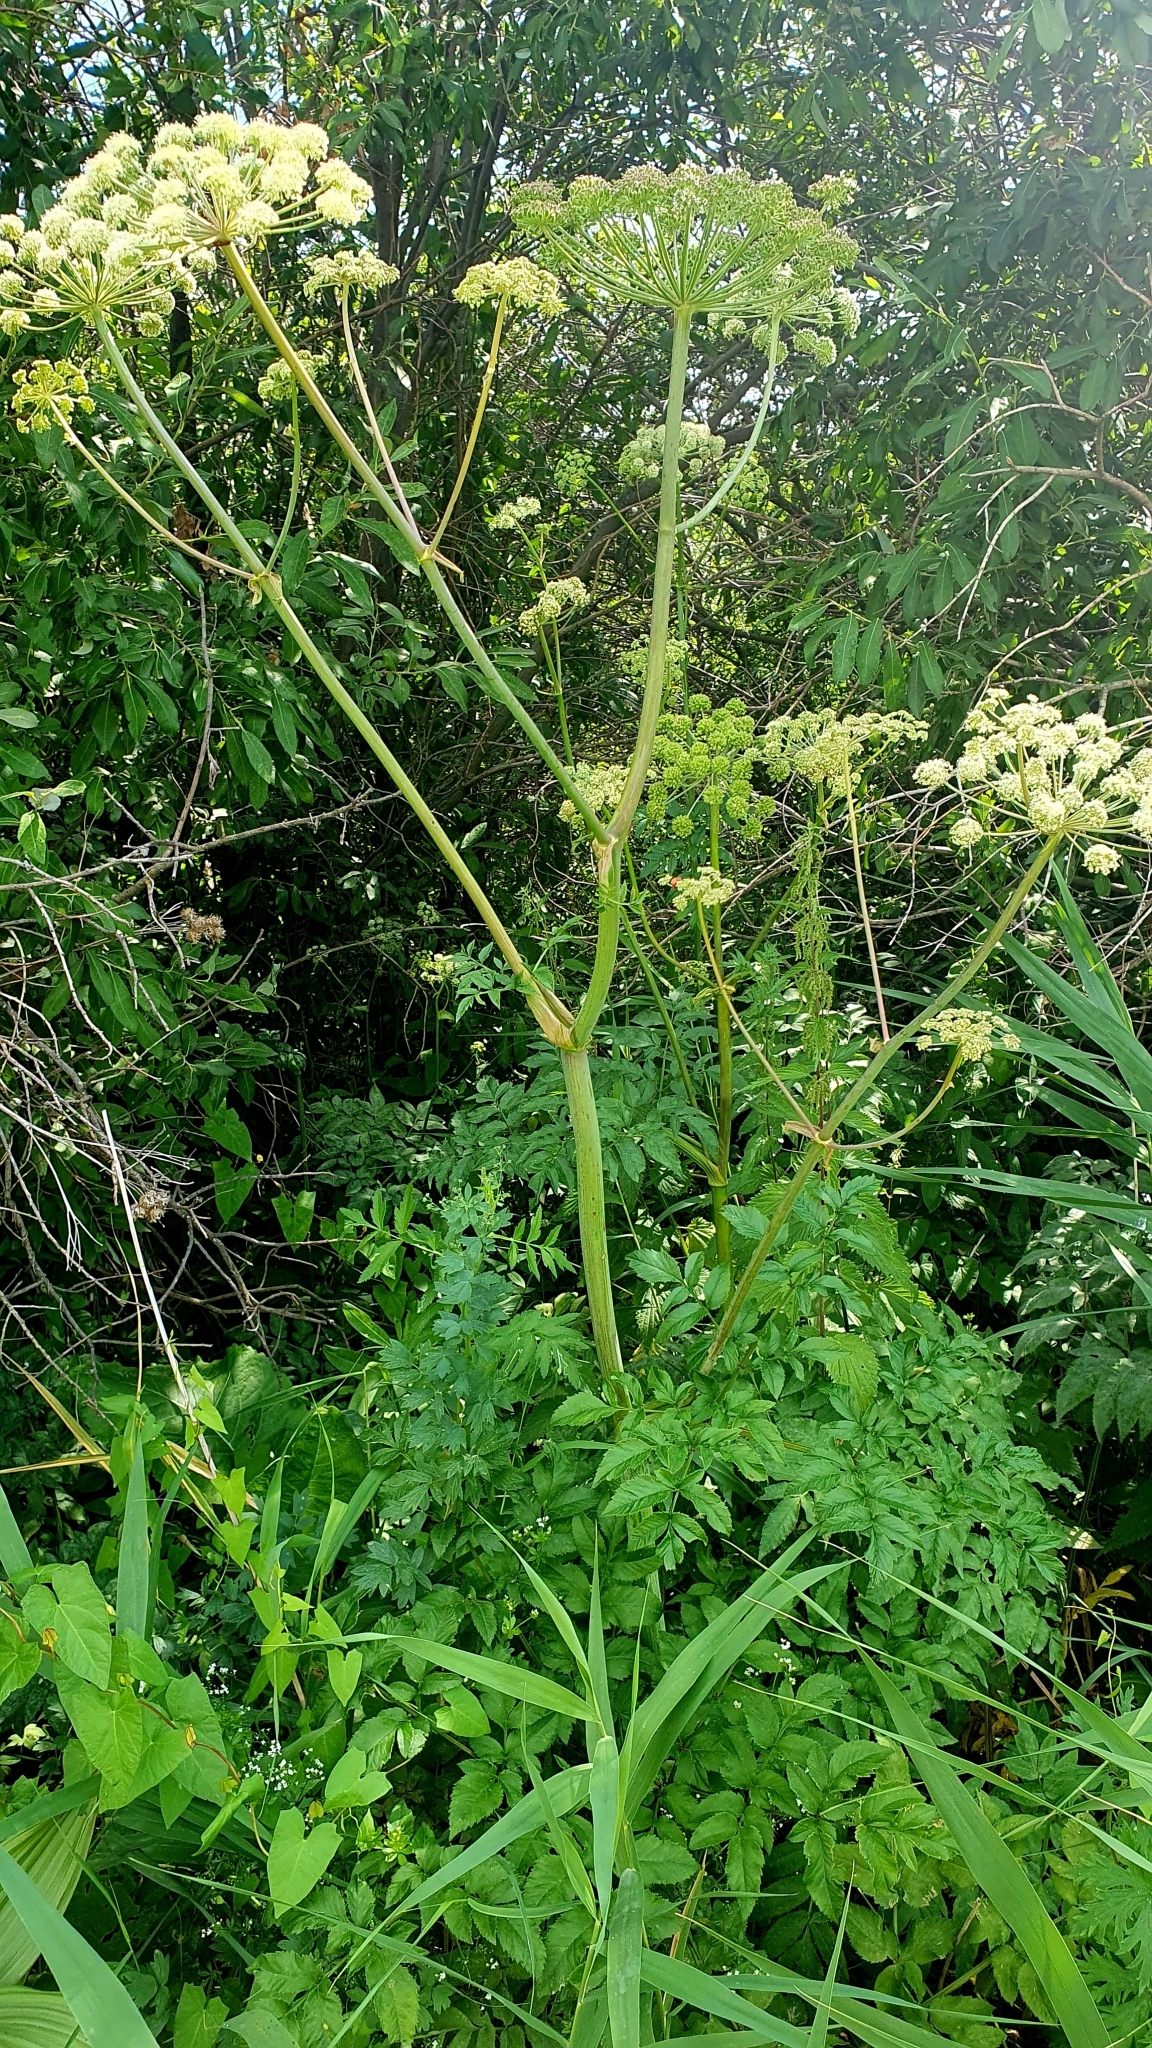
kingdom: Plantae
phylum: Tracheophyta
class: Magnoliopsida
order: Apiales
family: Apiaceae
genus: Angelica
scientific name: Angelica sylvestris
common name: Wild angelica
